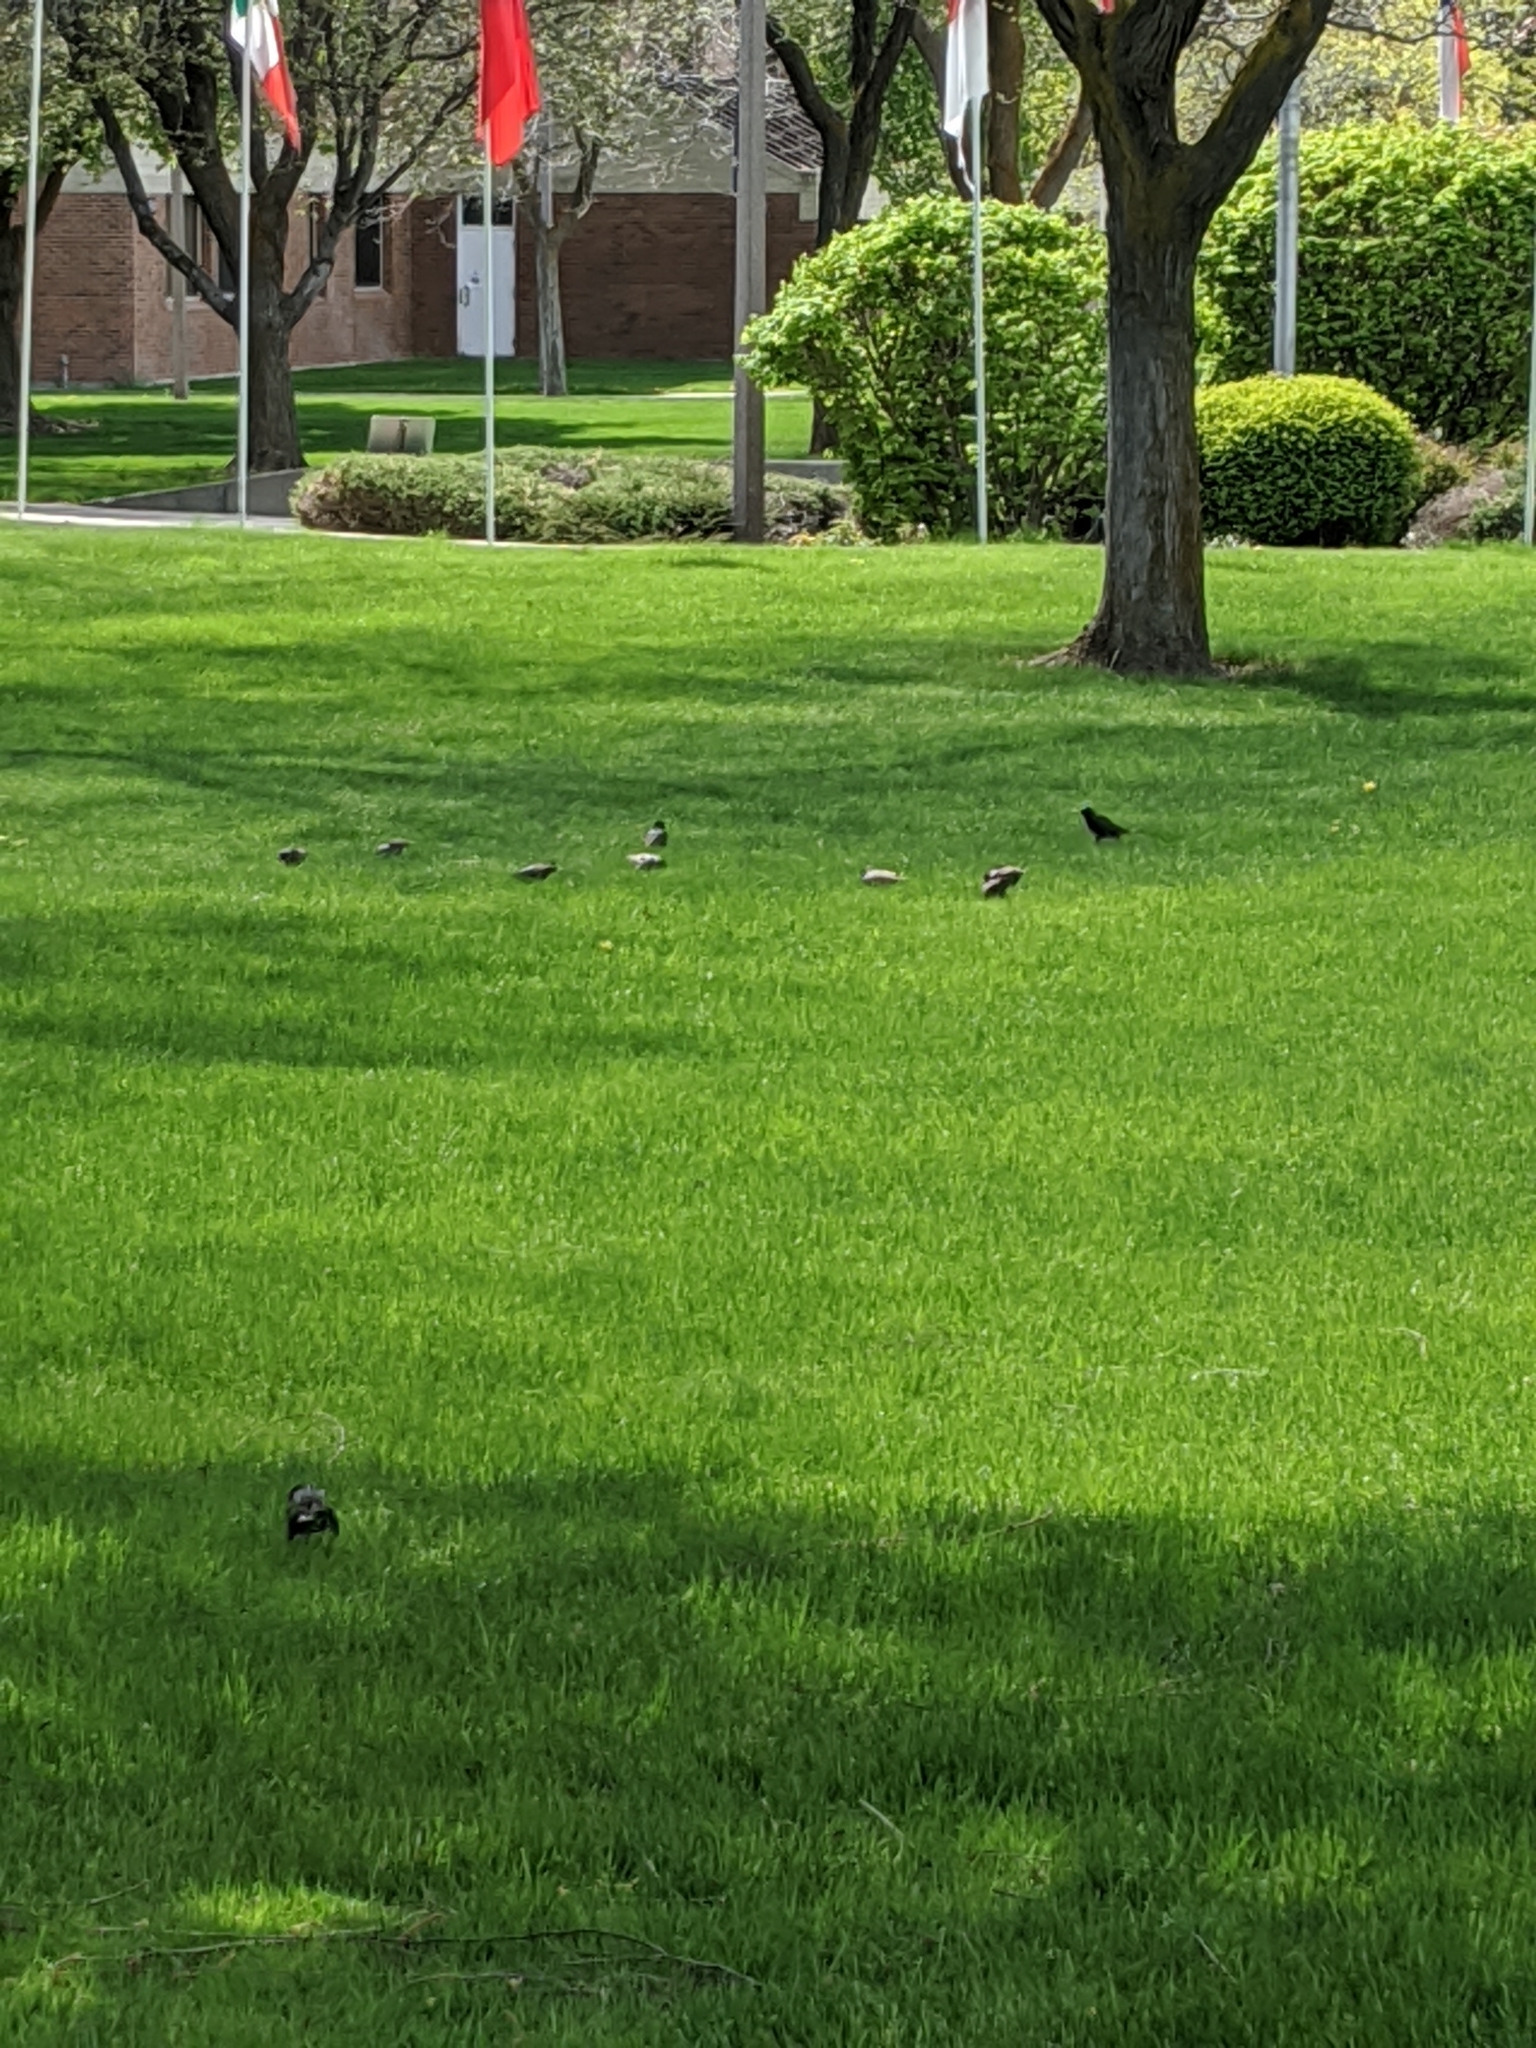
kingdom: Animalia
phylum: Chordata
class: Aves
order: Passeriformes
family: Sturnidae
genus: Sturnus
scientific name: Sturnus vulgaris
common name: Common starling
